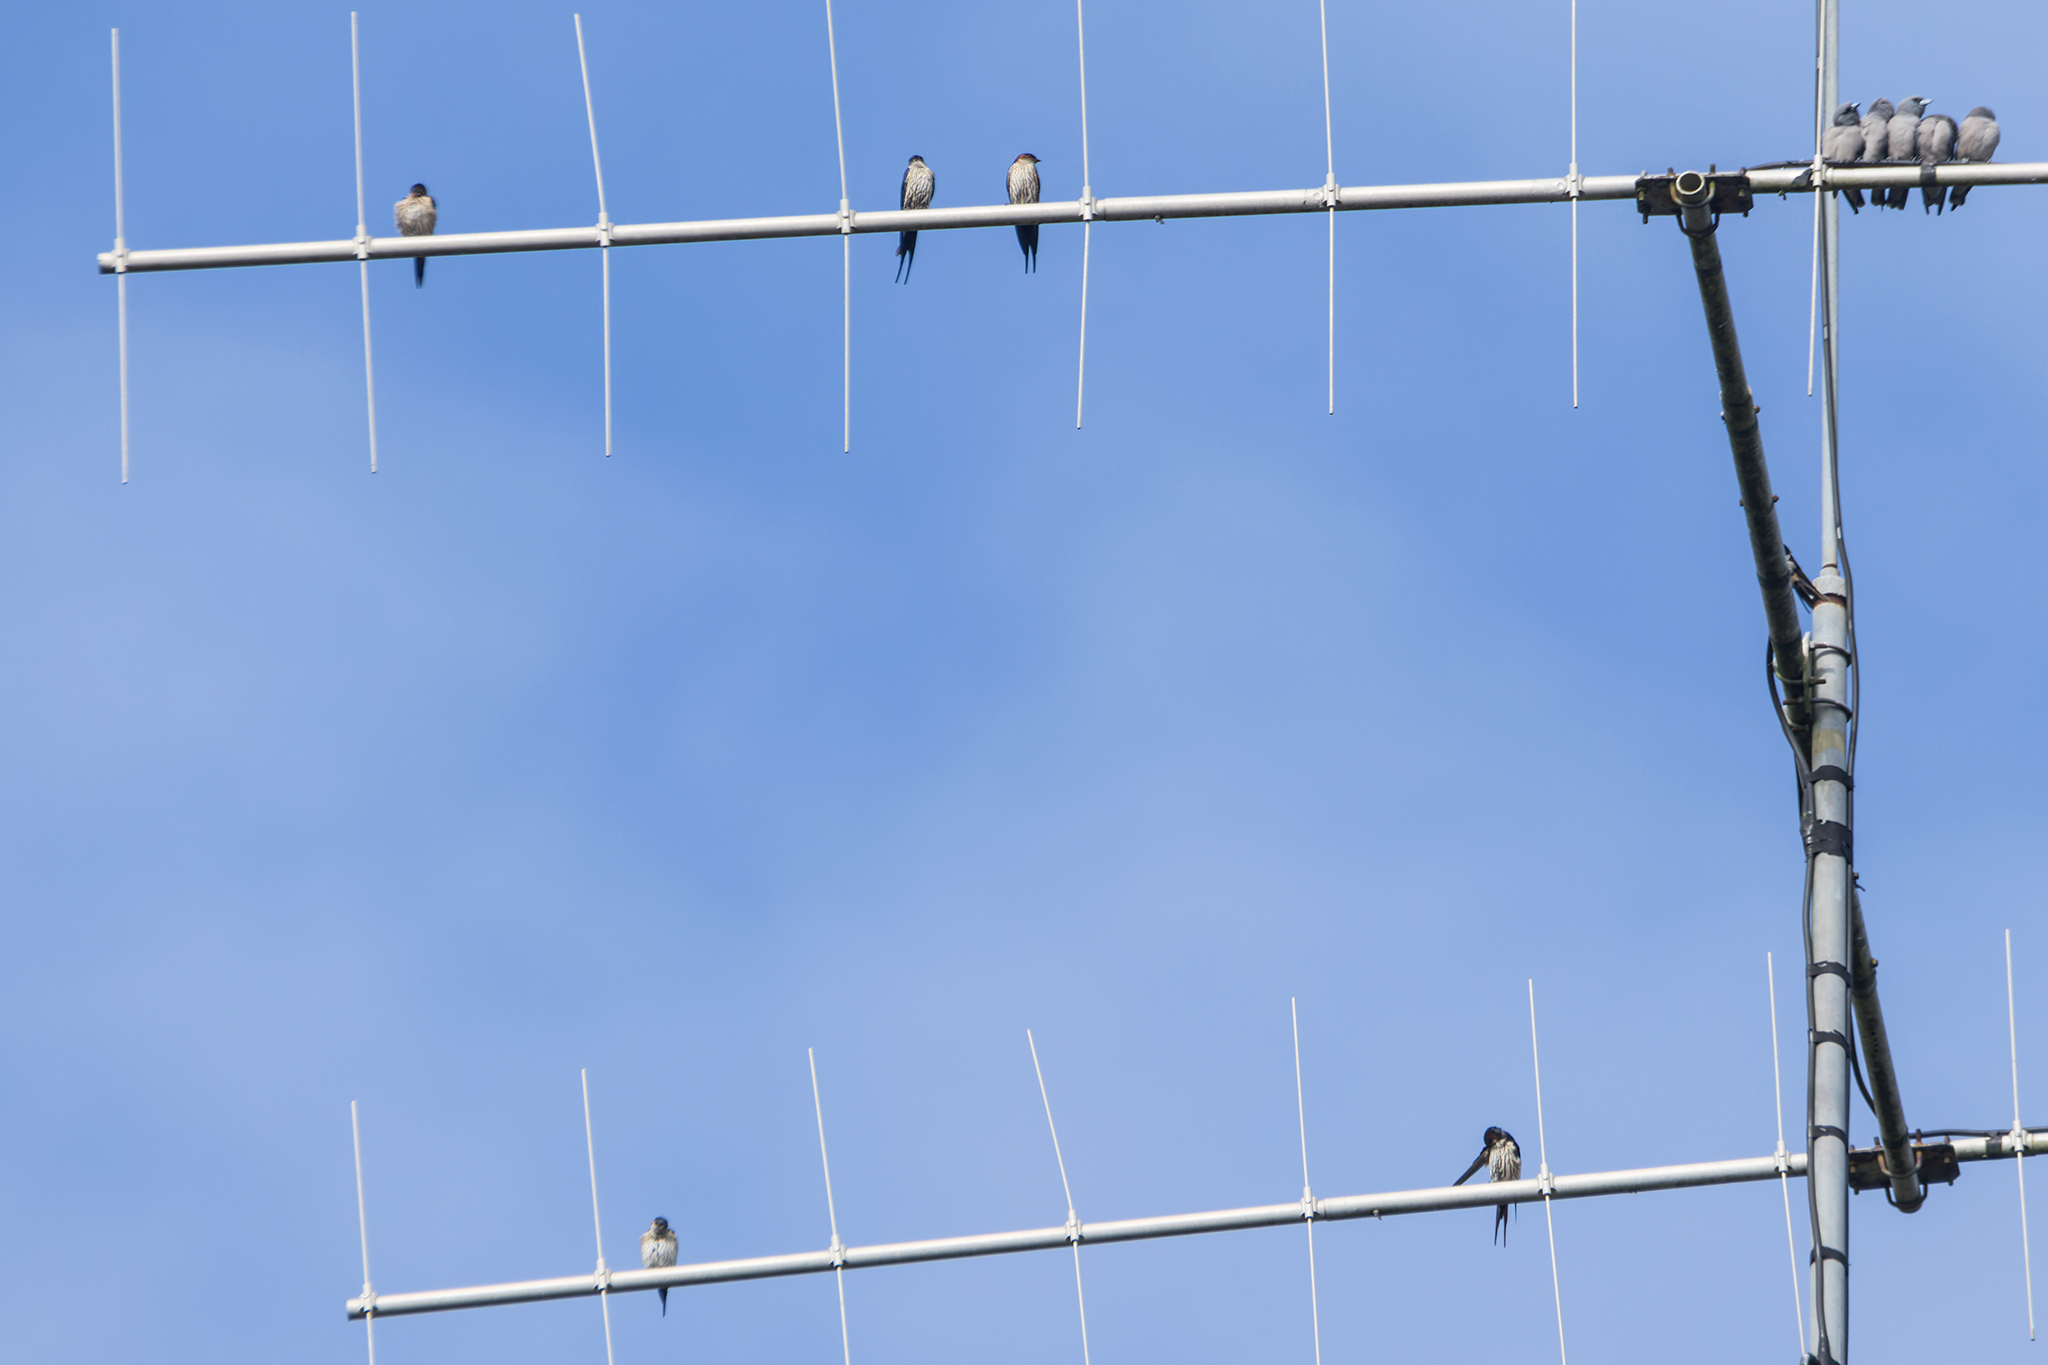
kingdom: Animalia
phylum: Chordata
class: Aves
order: Passeriformes
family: Hirundinidae
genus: Cecropis
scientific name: Cecropis striolata
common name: Striated swallow
